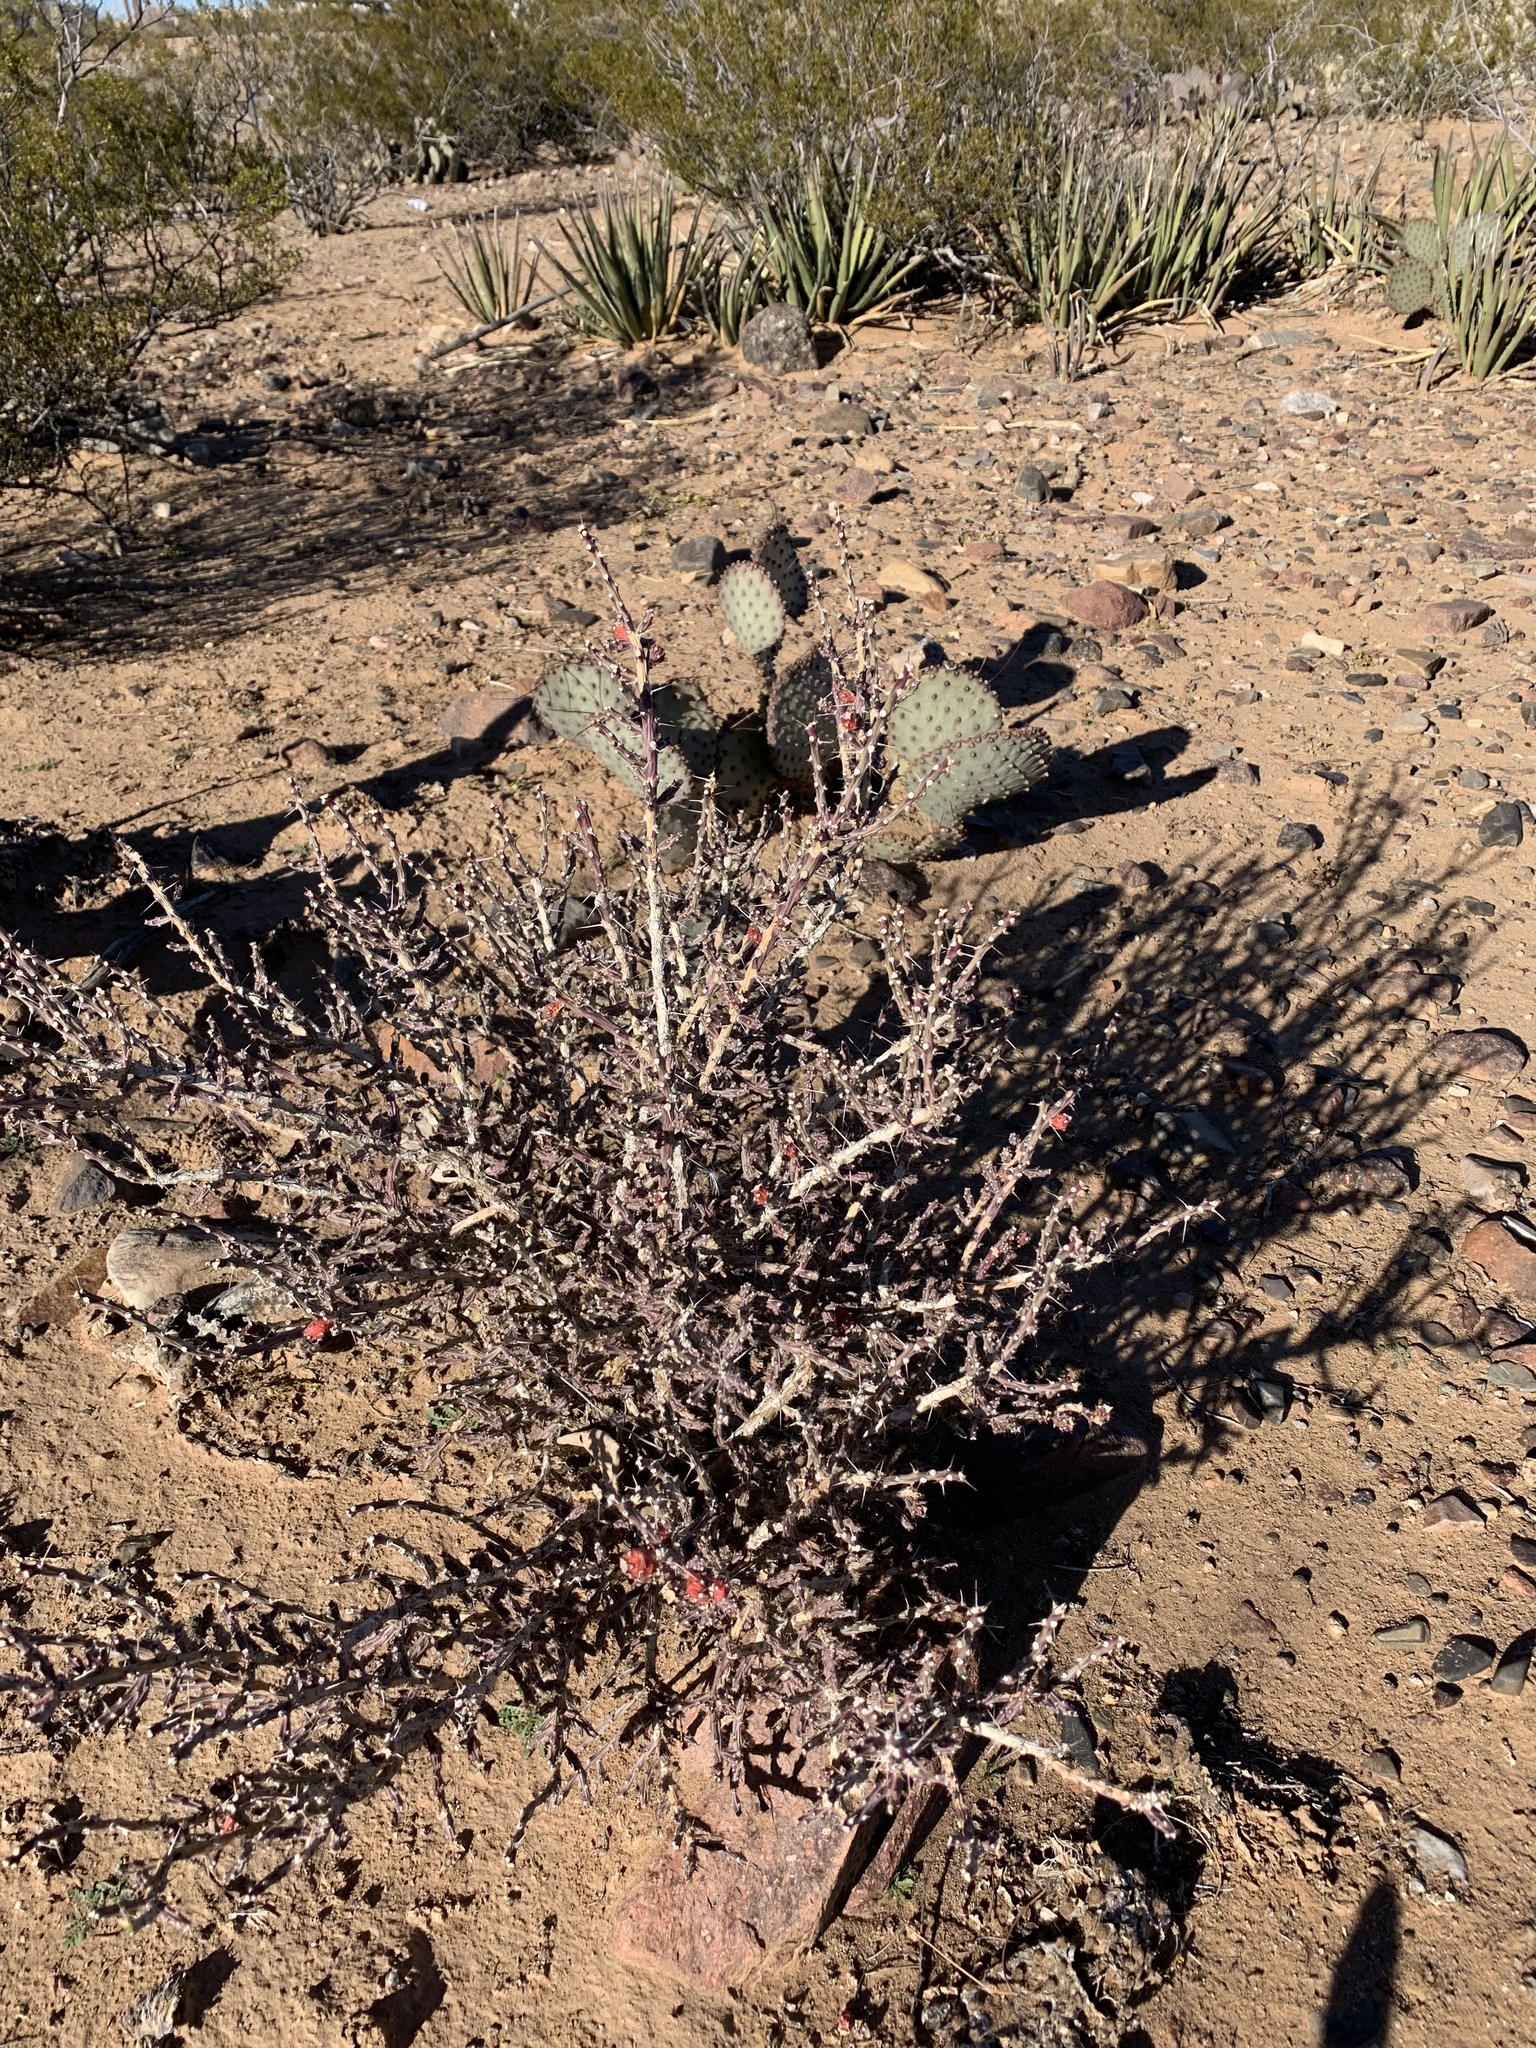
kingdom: Plantae
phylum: Tracheophyta
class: Magnoliopsida
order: Caryophyllales
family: Cactaceae
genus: Cylindropuntia
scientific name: Cylindropuntia leptocaulis
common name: Christmas cactus
